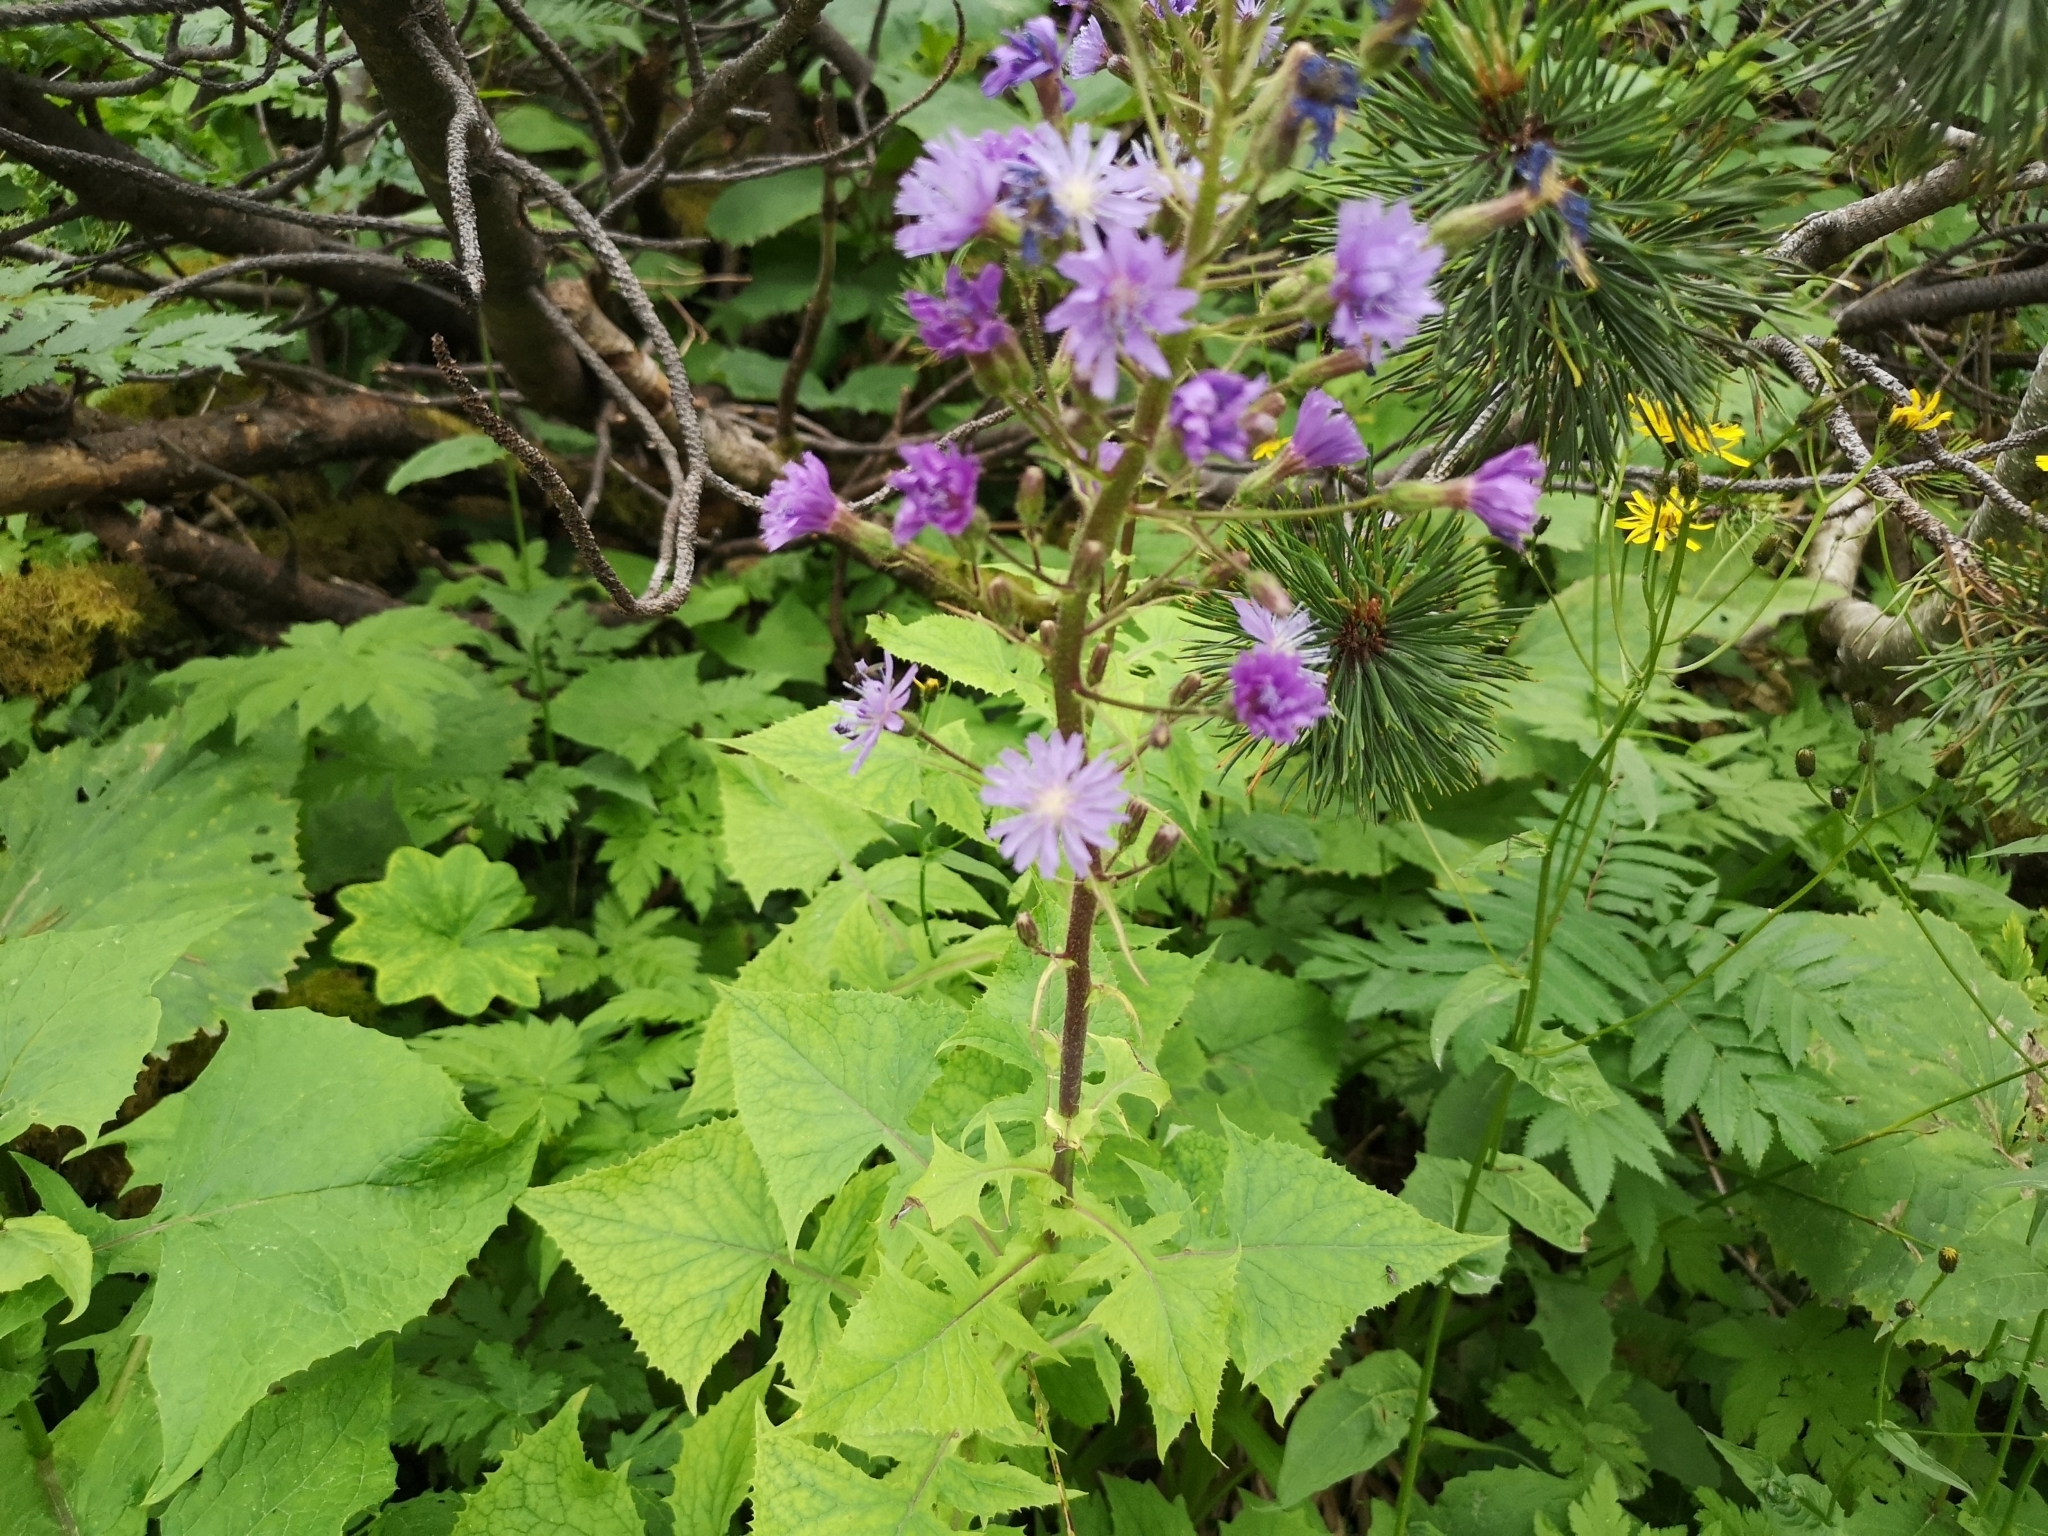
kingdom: Plantae
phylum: Tracheophyta
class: Magnoliopsida
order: Asterales
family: Asteraceae
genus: Cicerbita
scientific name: Cicerbita alpina
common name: Alpine blue-sow-thistle
